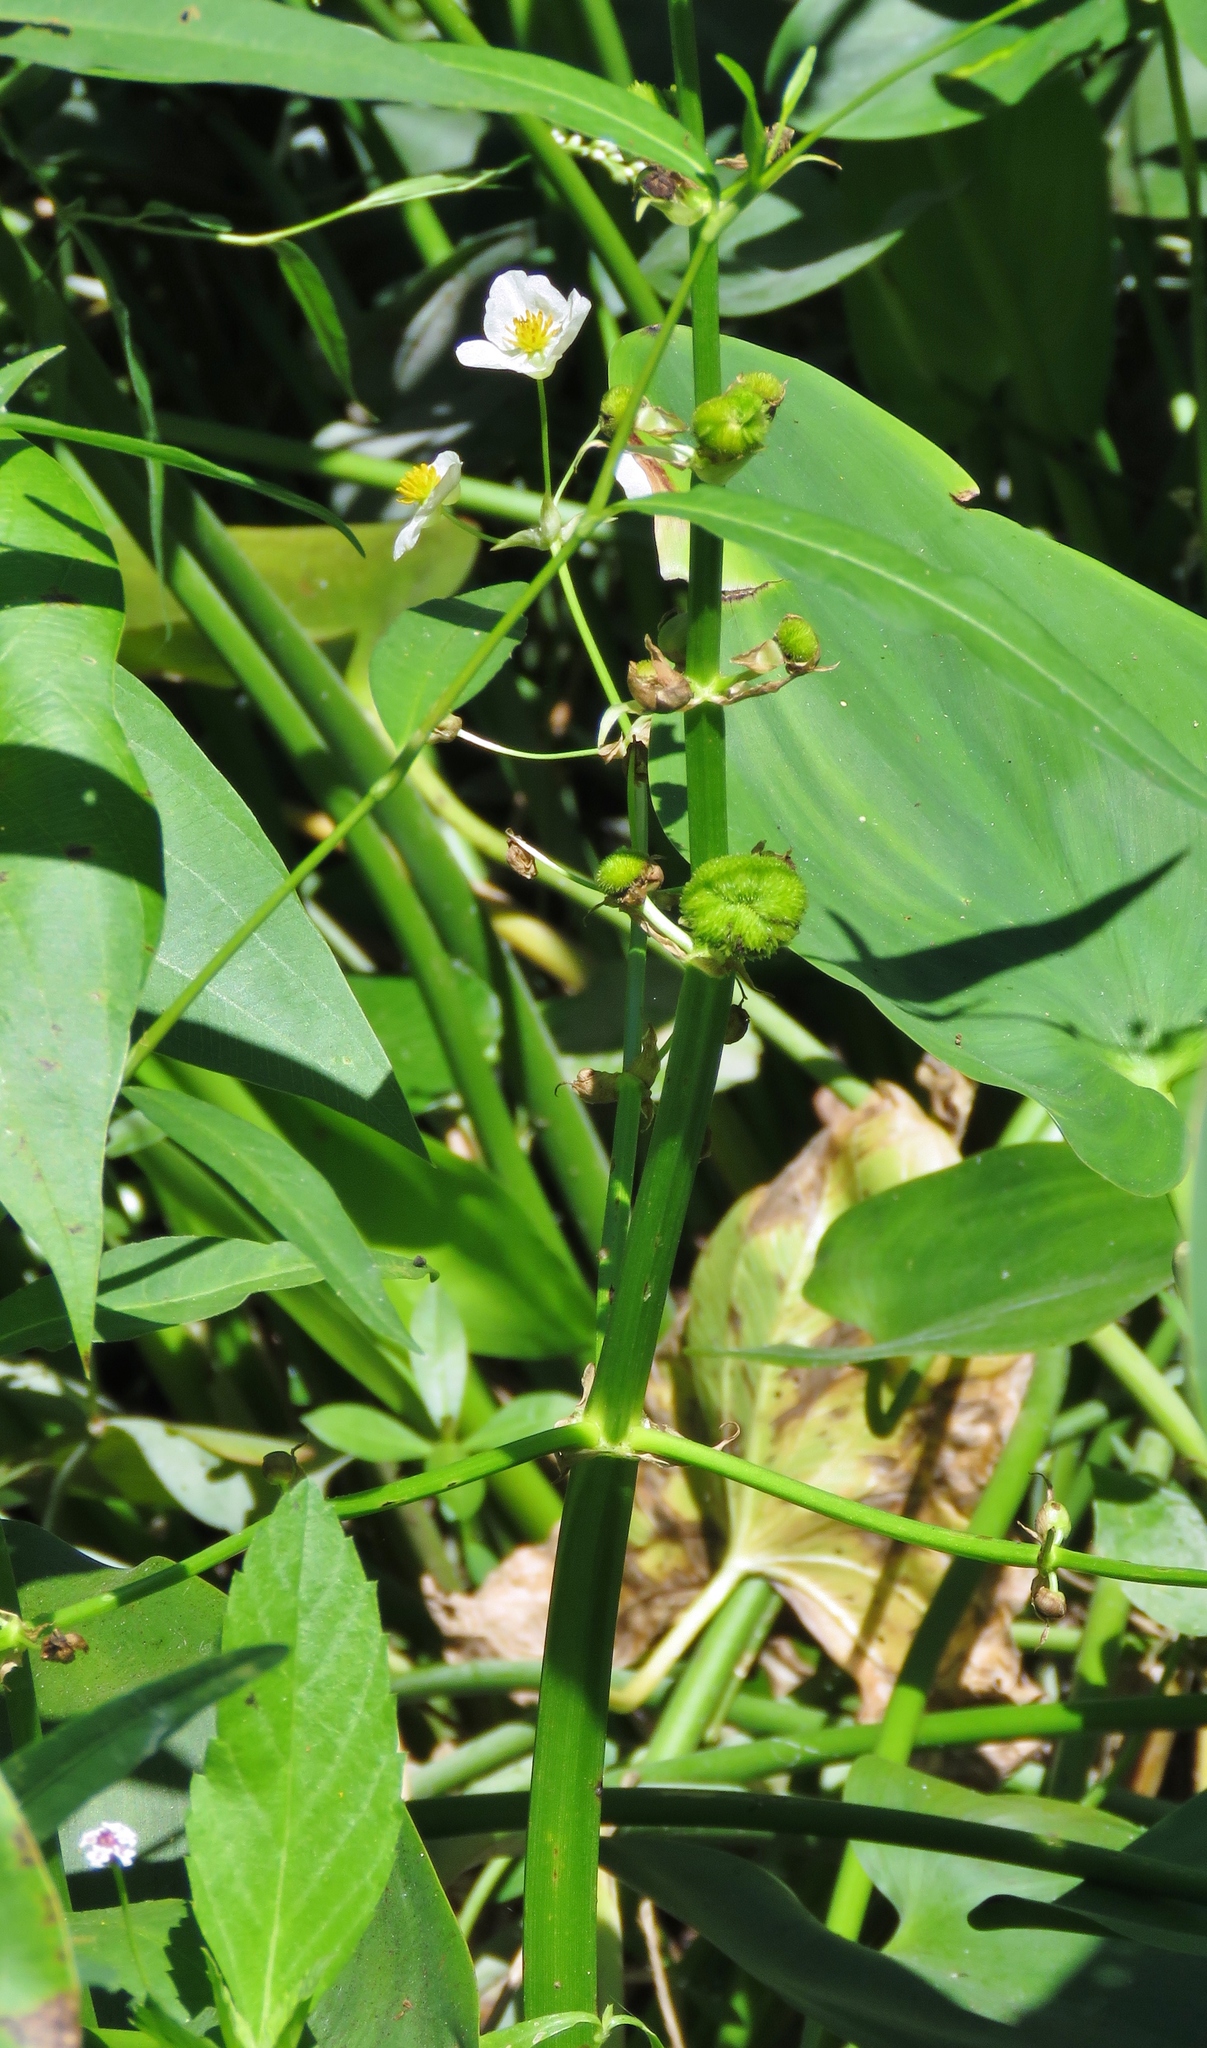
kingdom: Plantae
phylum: Tracheophyta
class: Liliopsida
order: Alismatales
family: Alismataceae
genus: Sagittaria
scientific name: Sagittaria brevirostra
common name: Midwestern arrowhead
